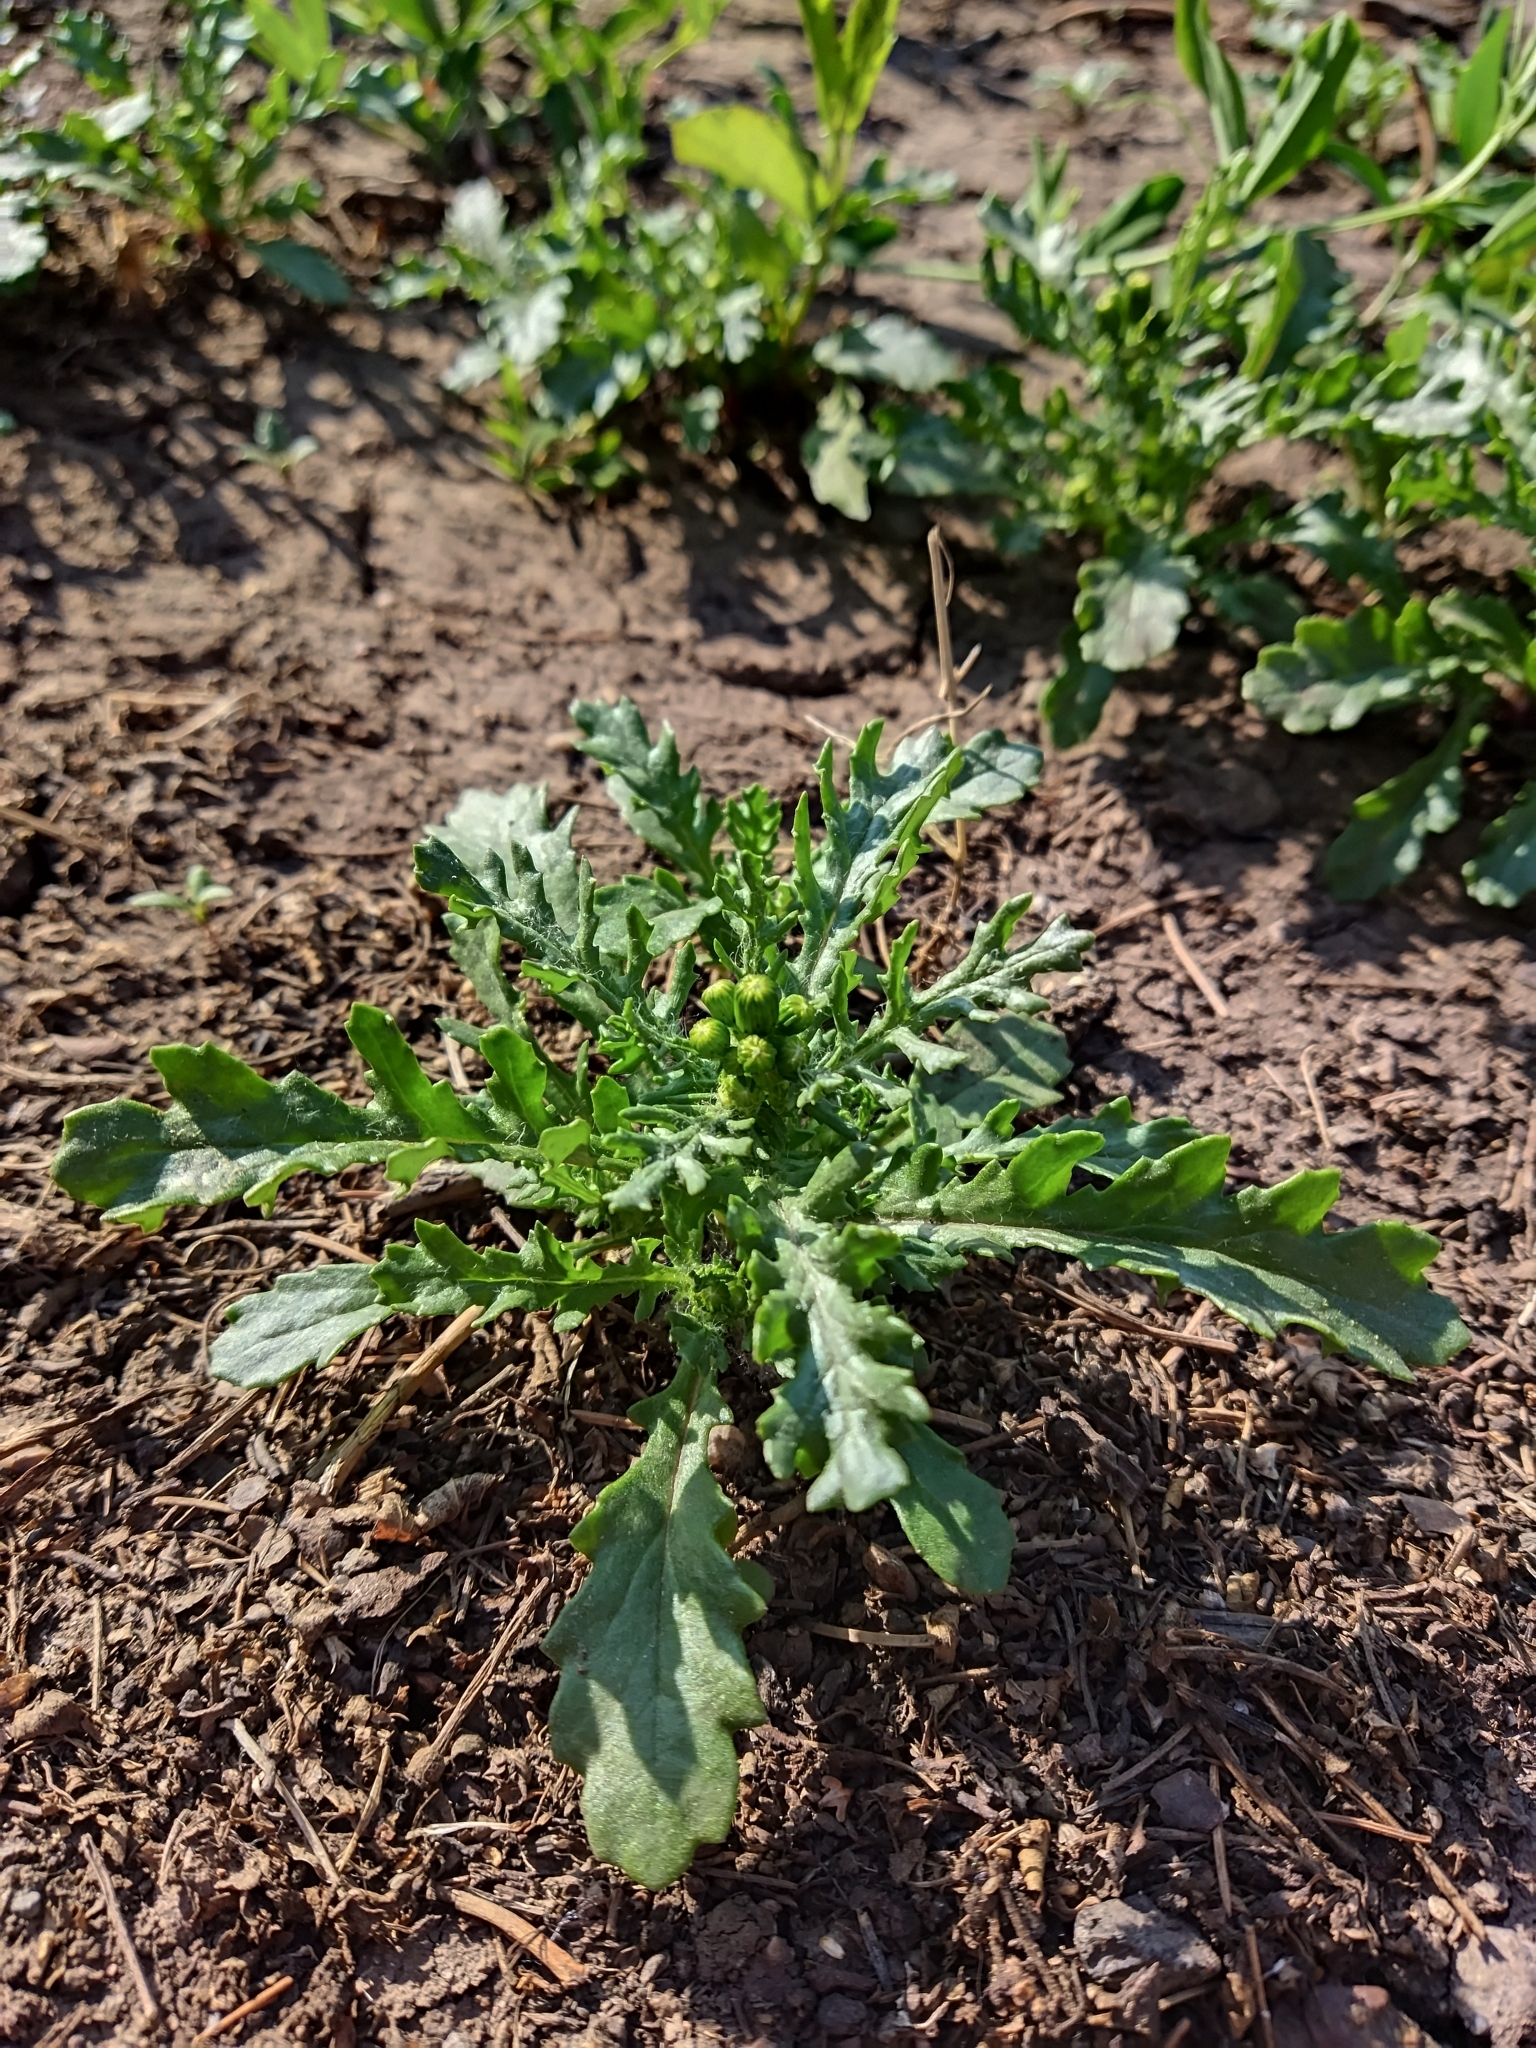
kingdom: Plantae
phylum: Tracheophyta
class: Magnoliopsida
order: Asterales
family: Asteraceae
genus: Senecio
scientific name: Senecio vulgaris
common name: Old-man-in-the-spring
